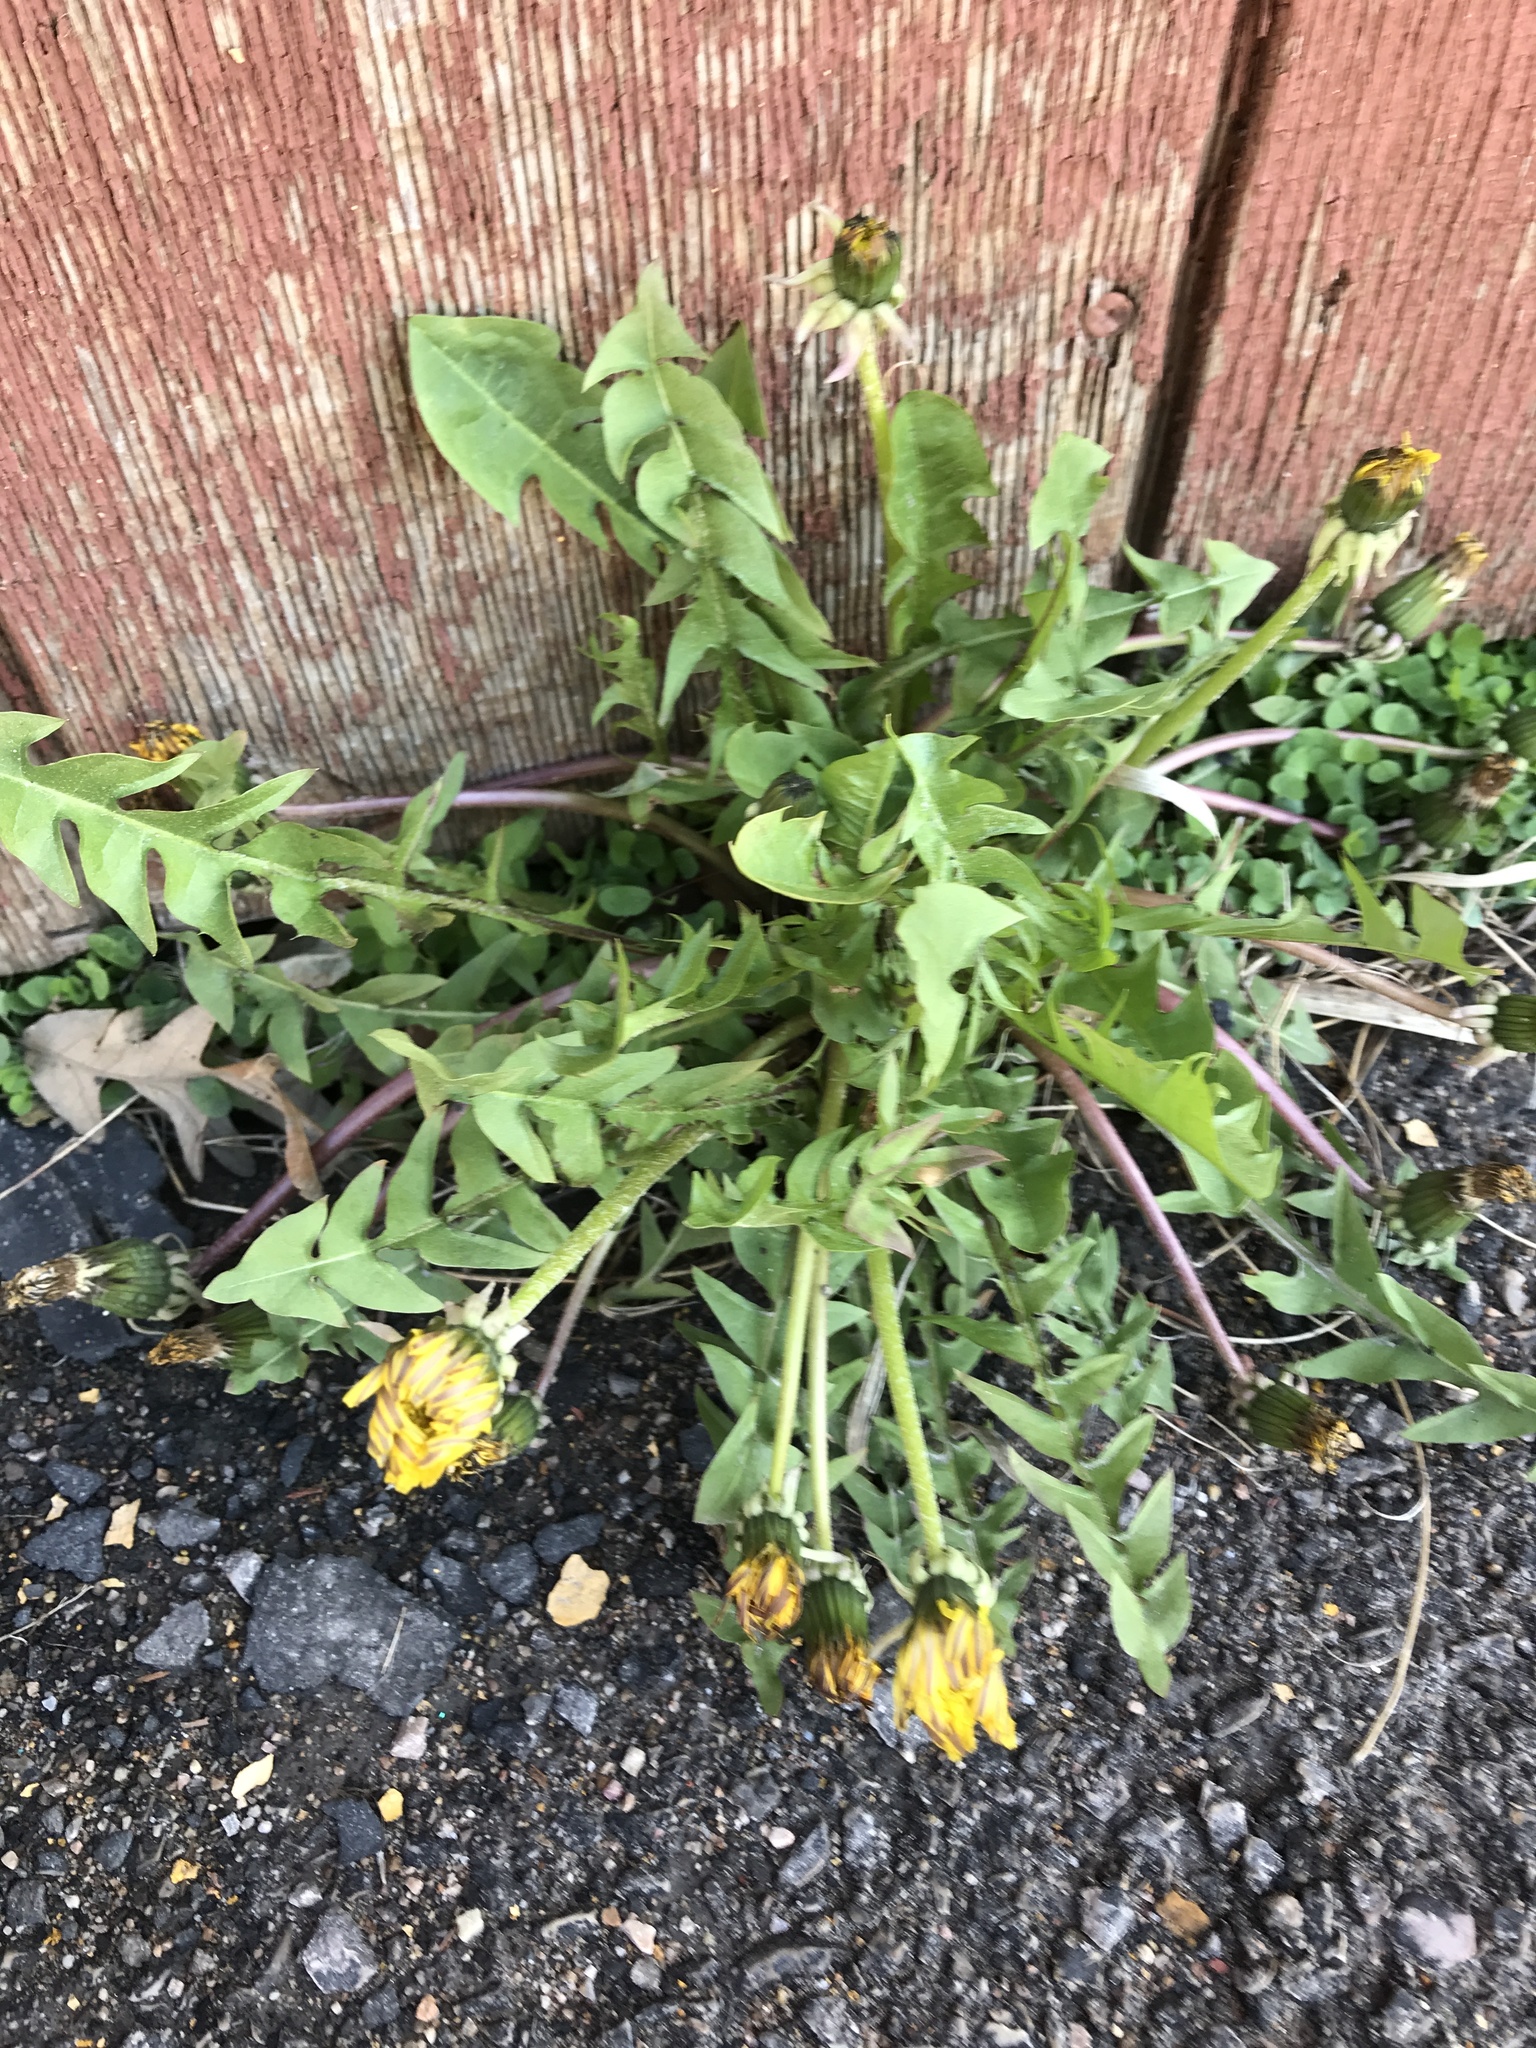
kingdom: Plantae
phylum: Tracheophyta
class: Magnoliopsida
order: Asterales
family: Asteraceae
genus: Taraxacum
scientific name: Taraxacum officinale
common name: Common dandelion
